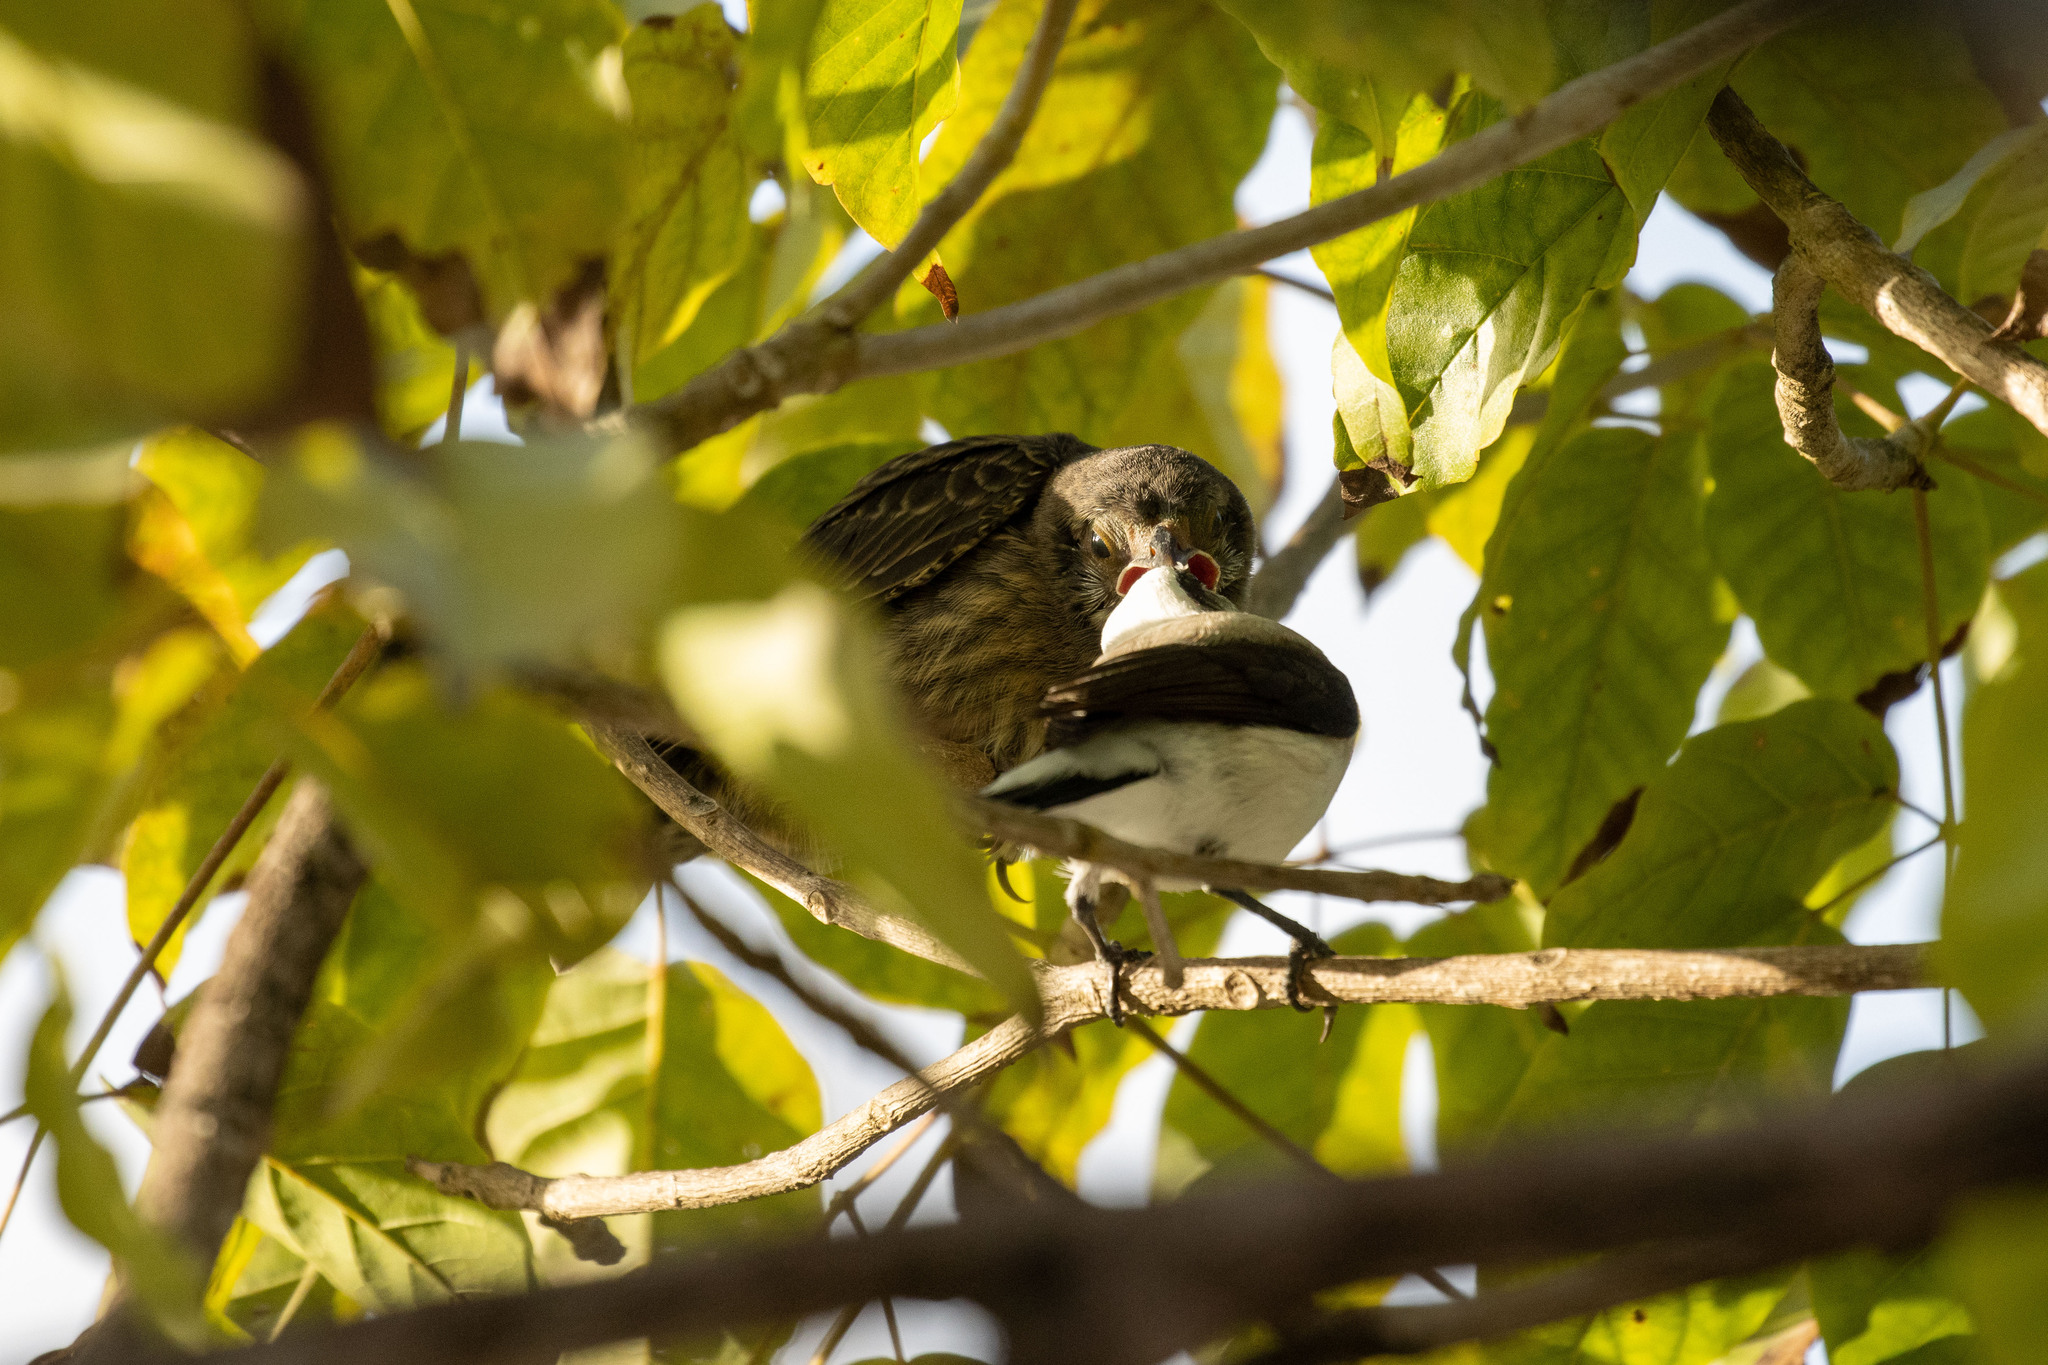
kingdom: Animalia
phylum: Chordata
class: Aves
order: Passeriformes
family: Tyrannidae
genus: Fluvicola
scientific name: Fluvicola nengeta
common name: Masked water tyrant
